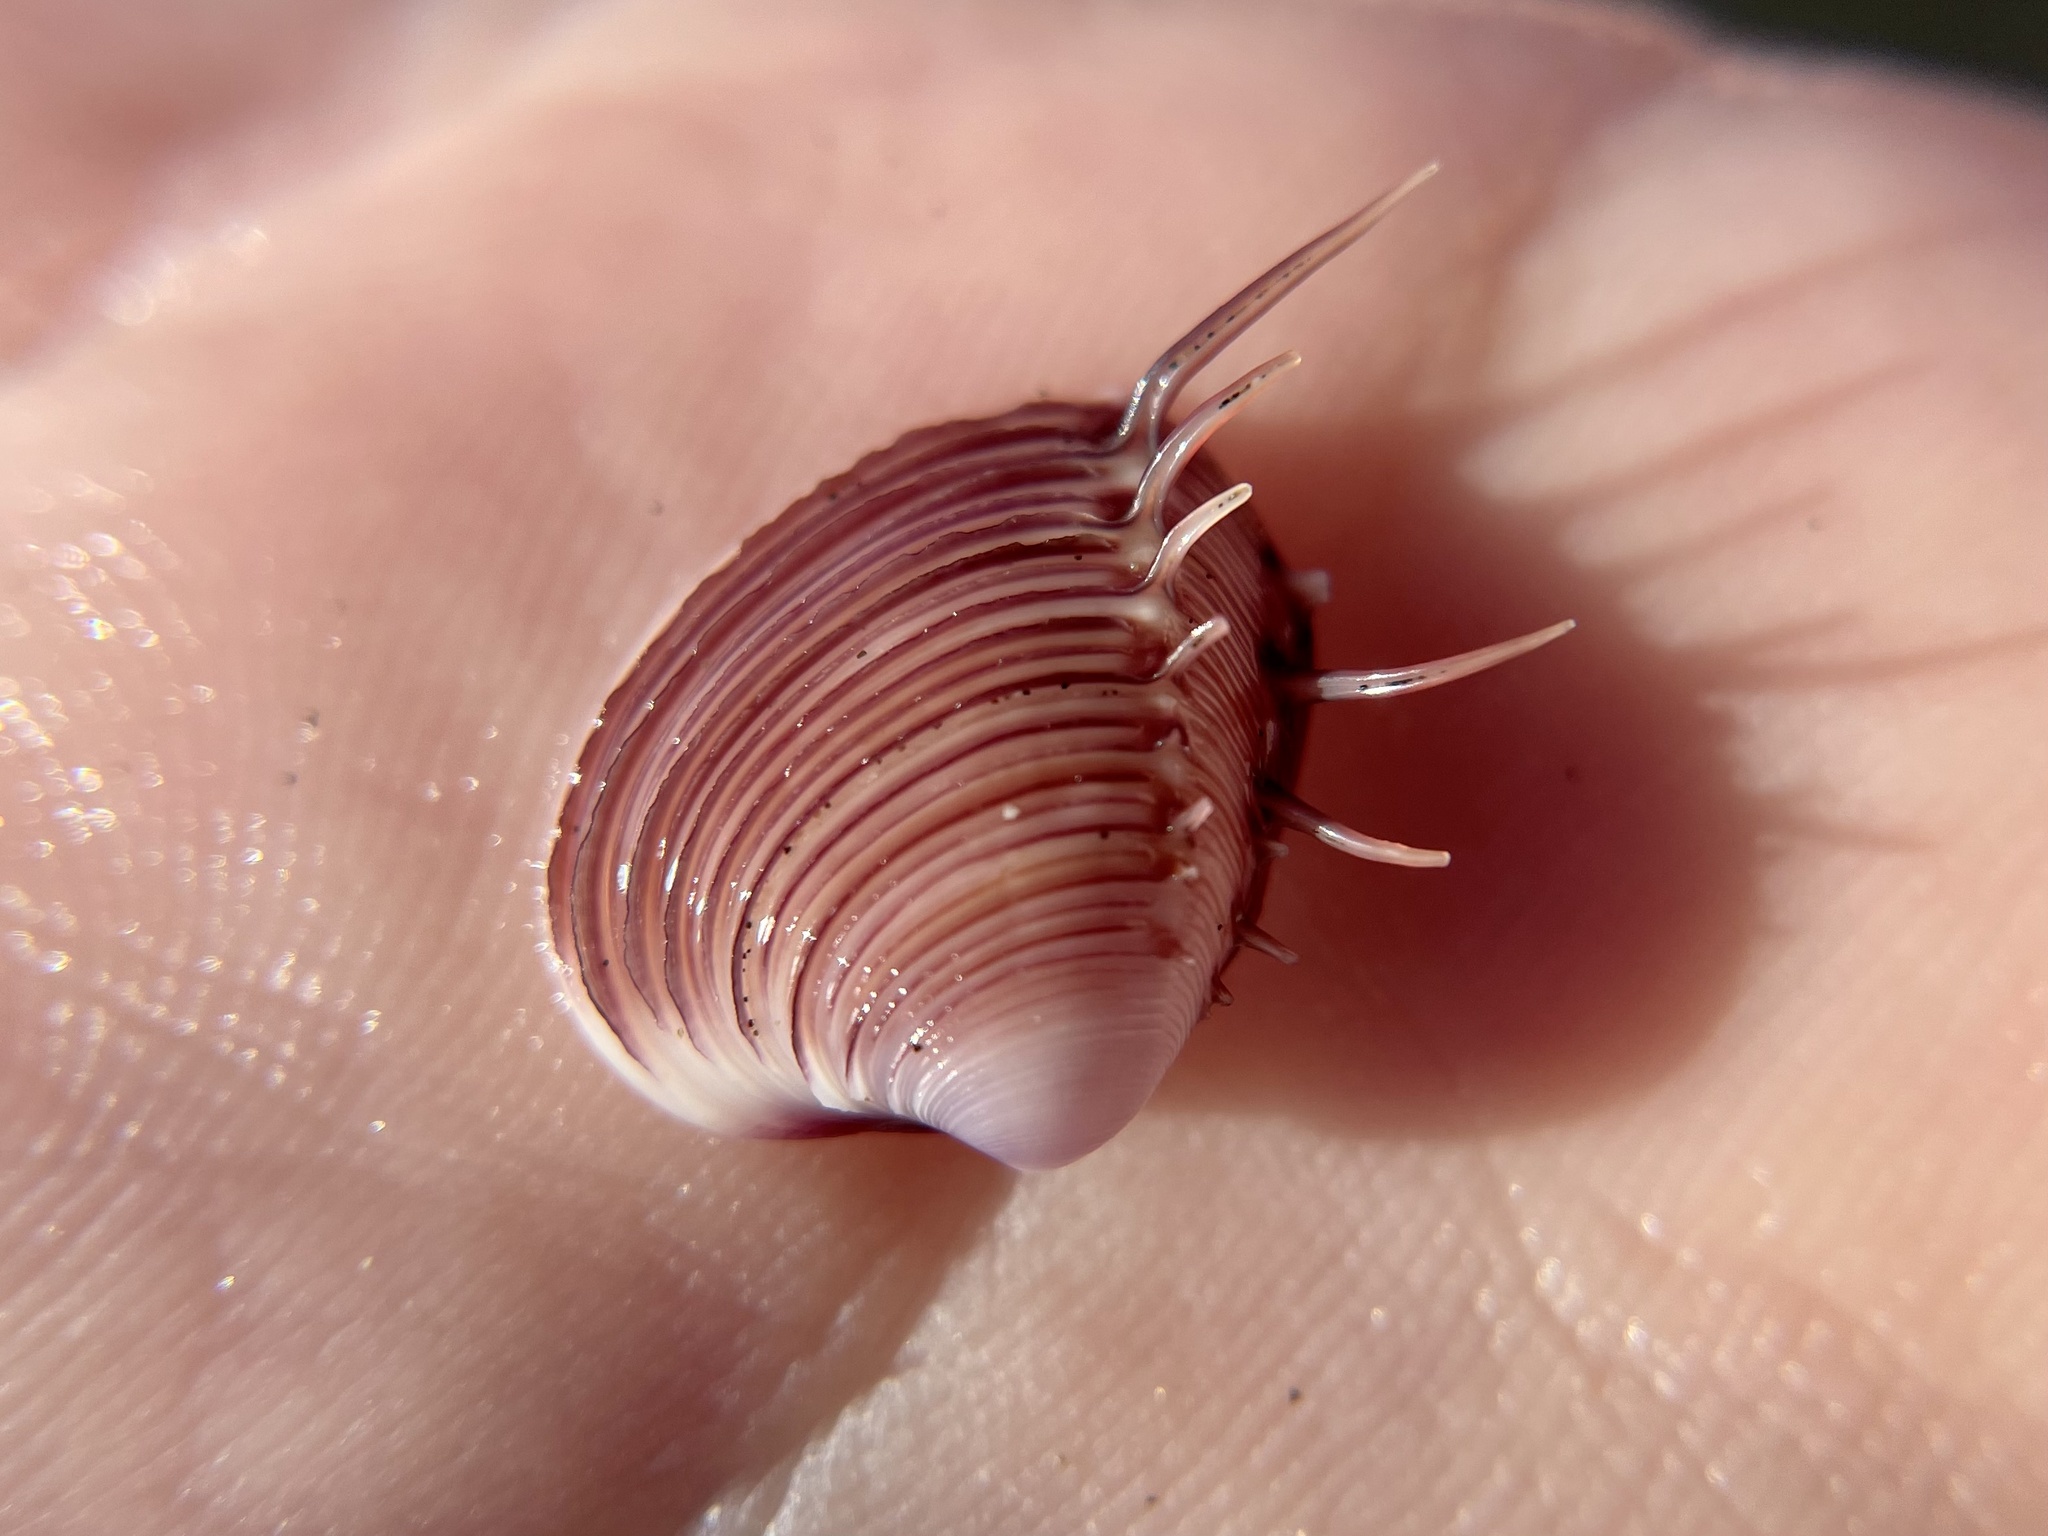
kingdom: Animalia
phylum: Mollusca
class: Bivalvia
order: Venerida
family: Veneridae
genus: Hysteroconcha
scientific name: Hysteroconcha lupanaria
